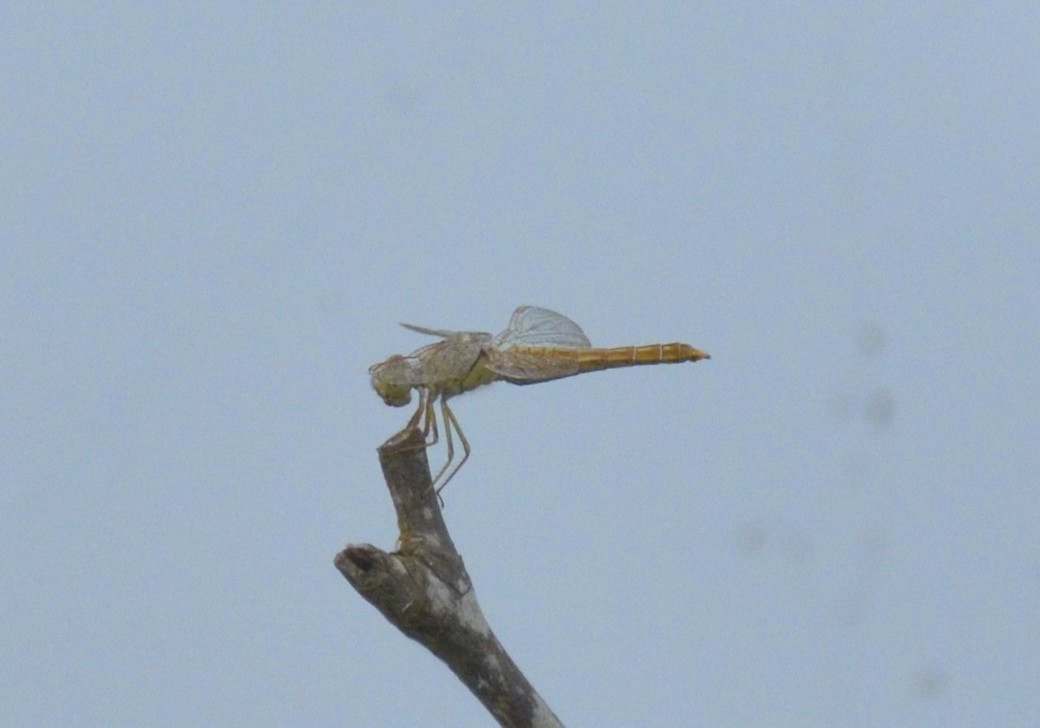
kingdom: Animalia
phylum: Arthropoda
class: Insecta
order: Odonata
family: Libellulidae
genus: Brachythemis
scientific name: Brachythemis contaminata
